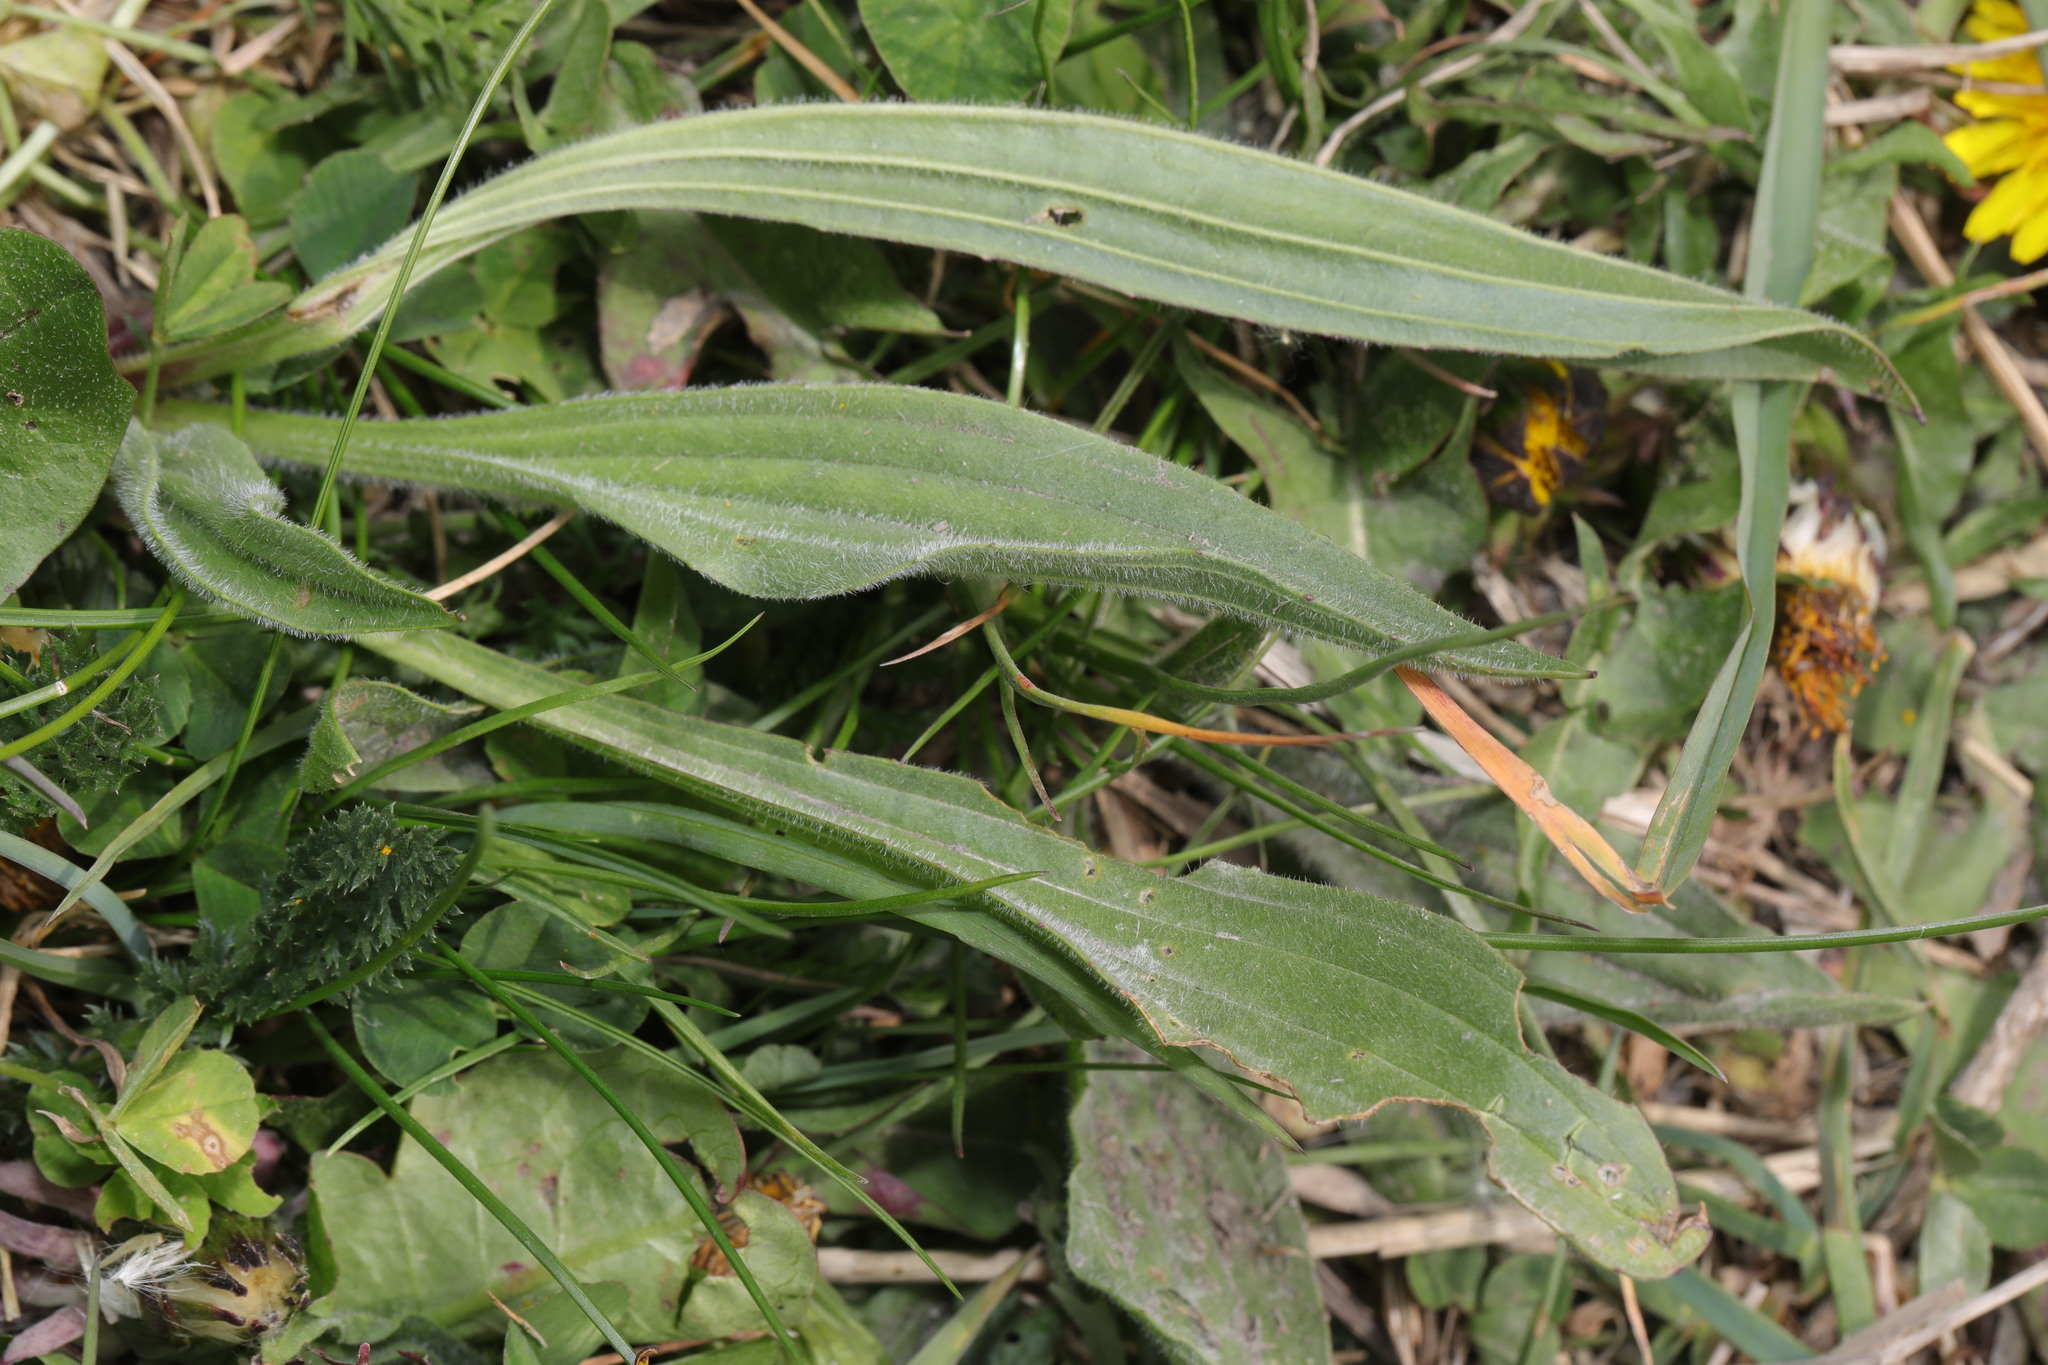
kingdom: Plantae
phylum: Tracheophyta
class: Magnoliopsida
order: Lamiales
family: Plantaginaceae
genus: Plantago
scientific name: Plantago lanceolata
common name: Ribwort plantain
